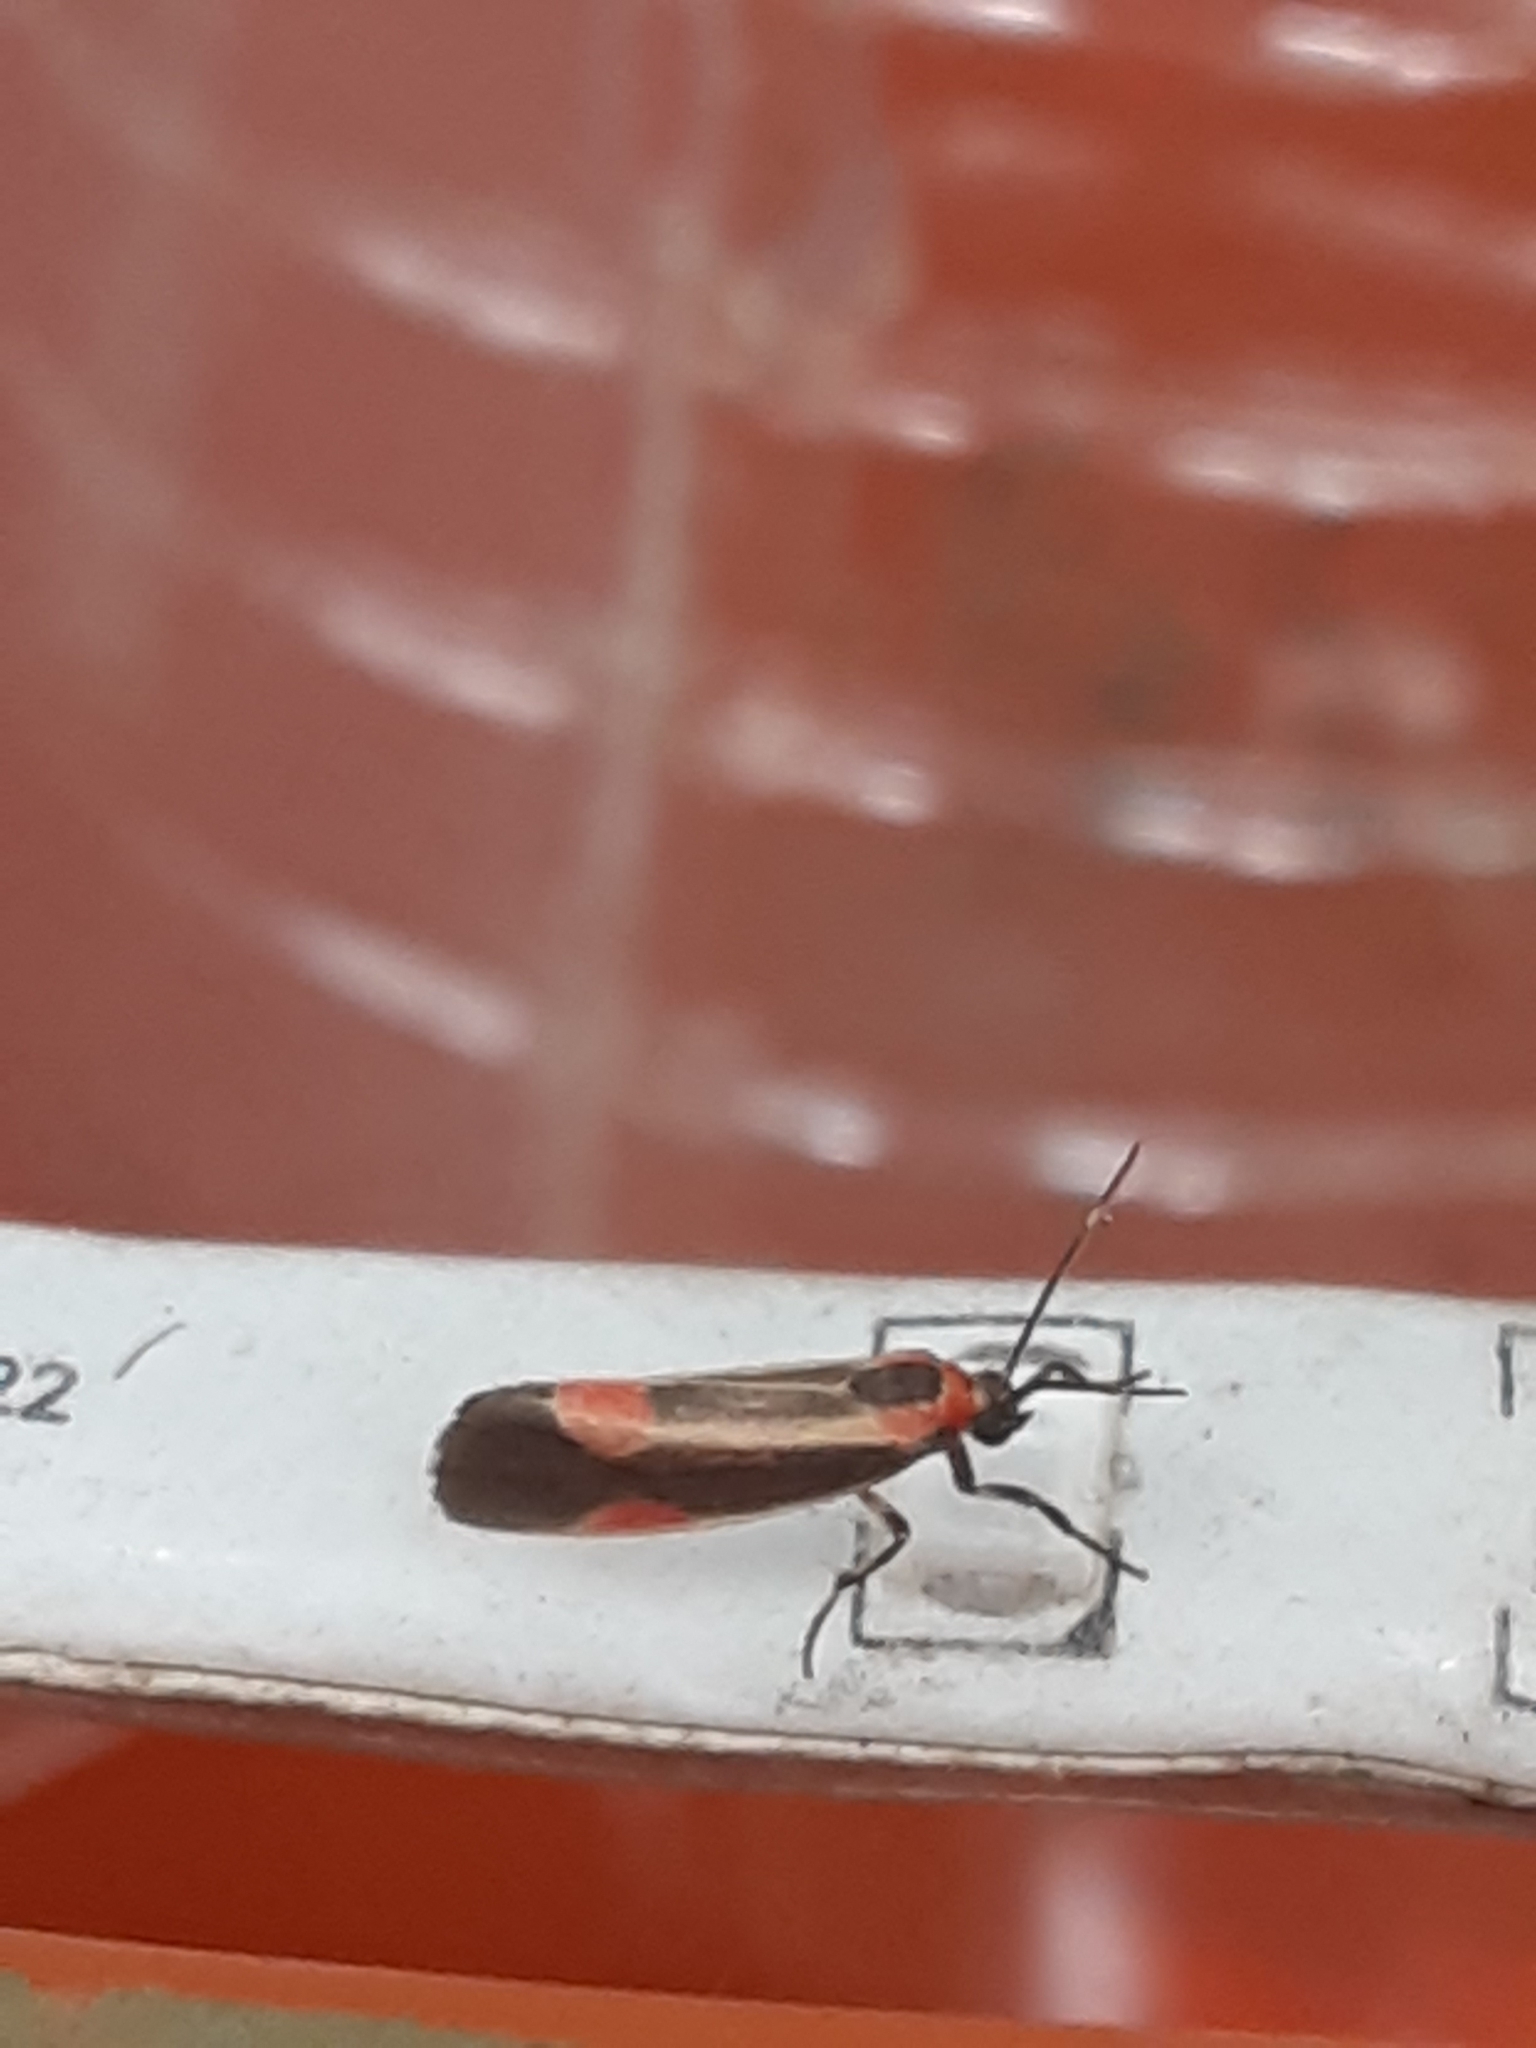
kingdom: Animalia
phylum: Arthropoda
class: Insecta
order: Lepidoptera
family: Erebidae
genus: Cisthene
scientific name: Cisthene subjecta
